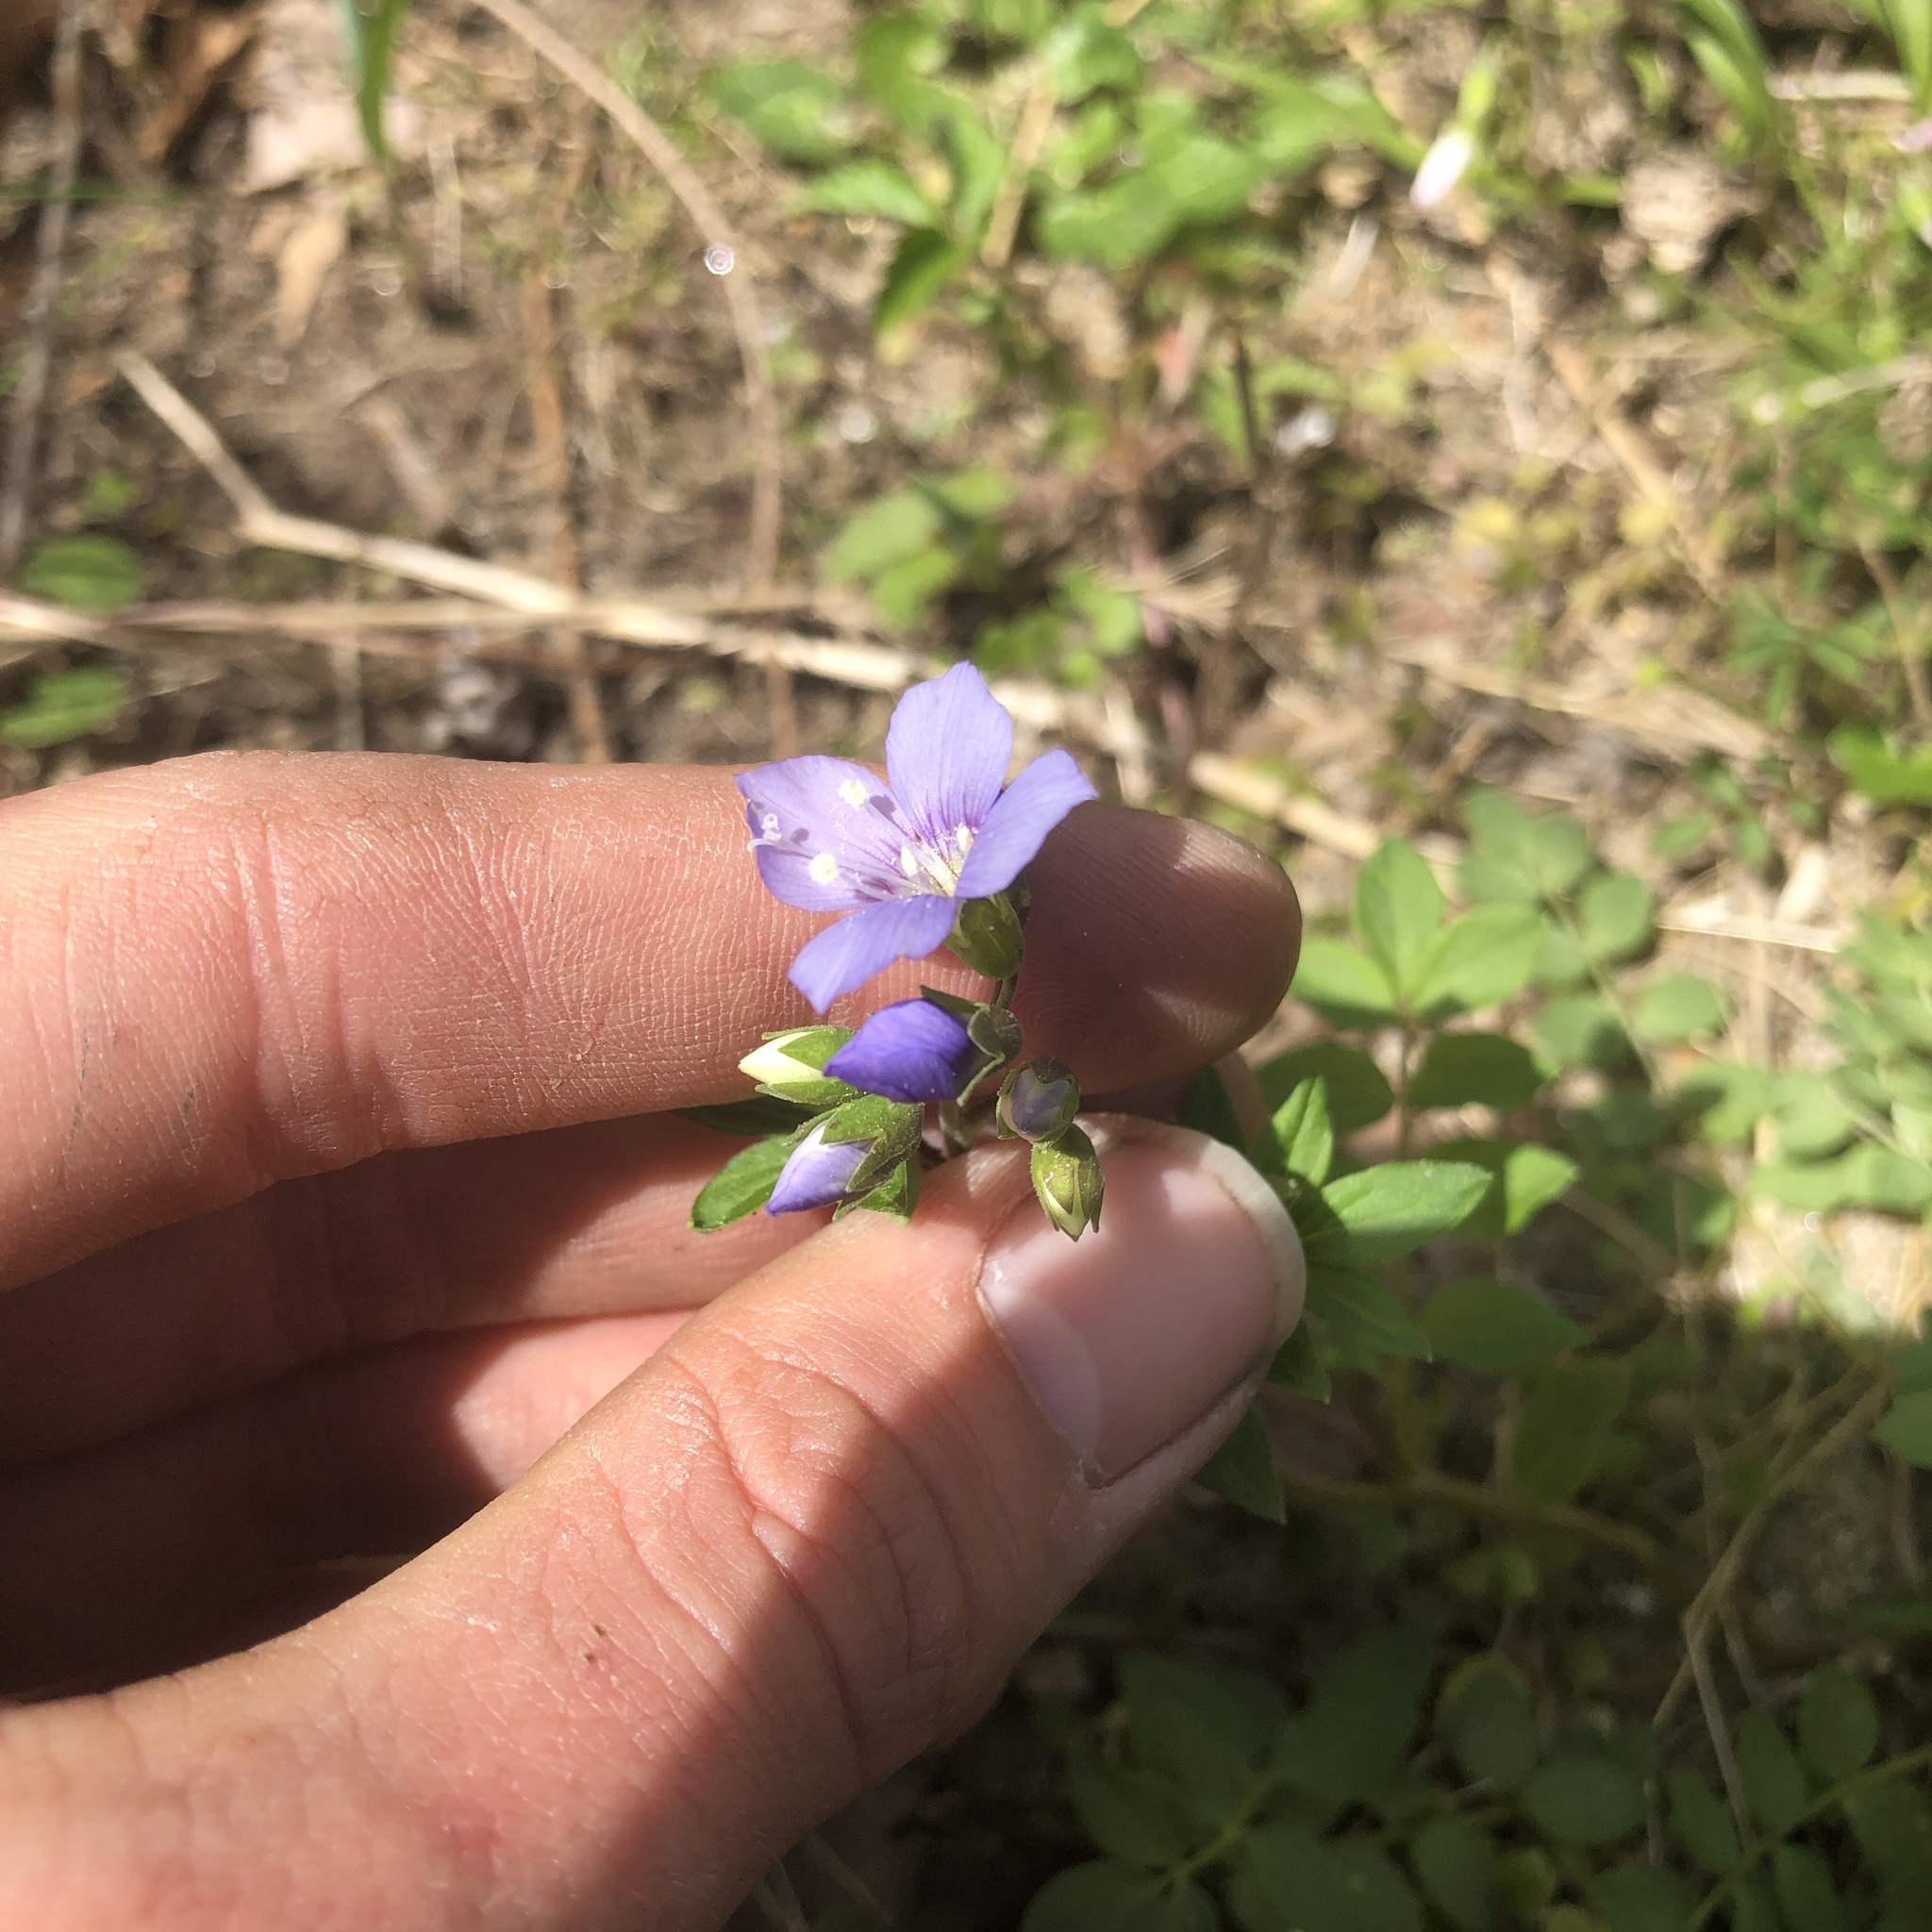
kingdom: Plantae
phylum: Tracheophyta
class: Magnoliopsida
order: Ericales
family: Polemoniaceae
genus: Polemonium
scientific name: Polemonium reptans
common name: Creeping jacob's-ladder
